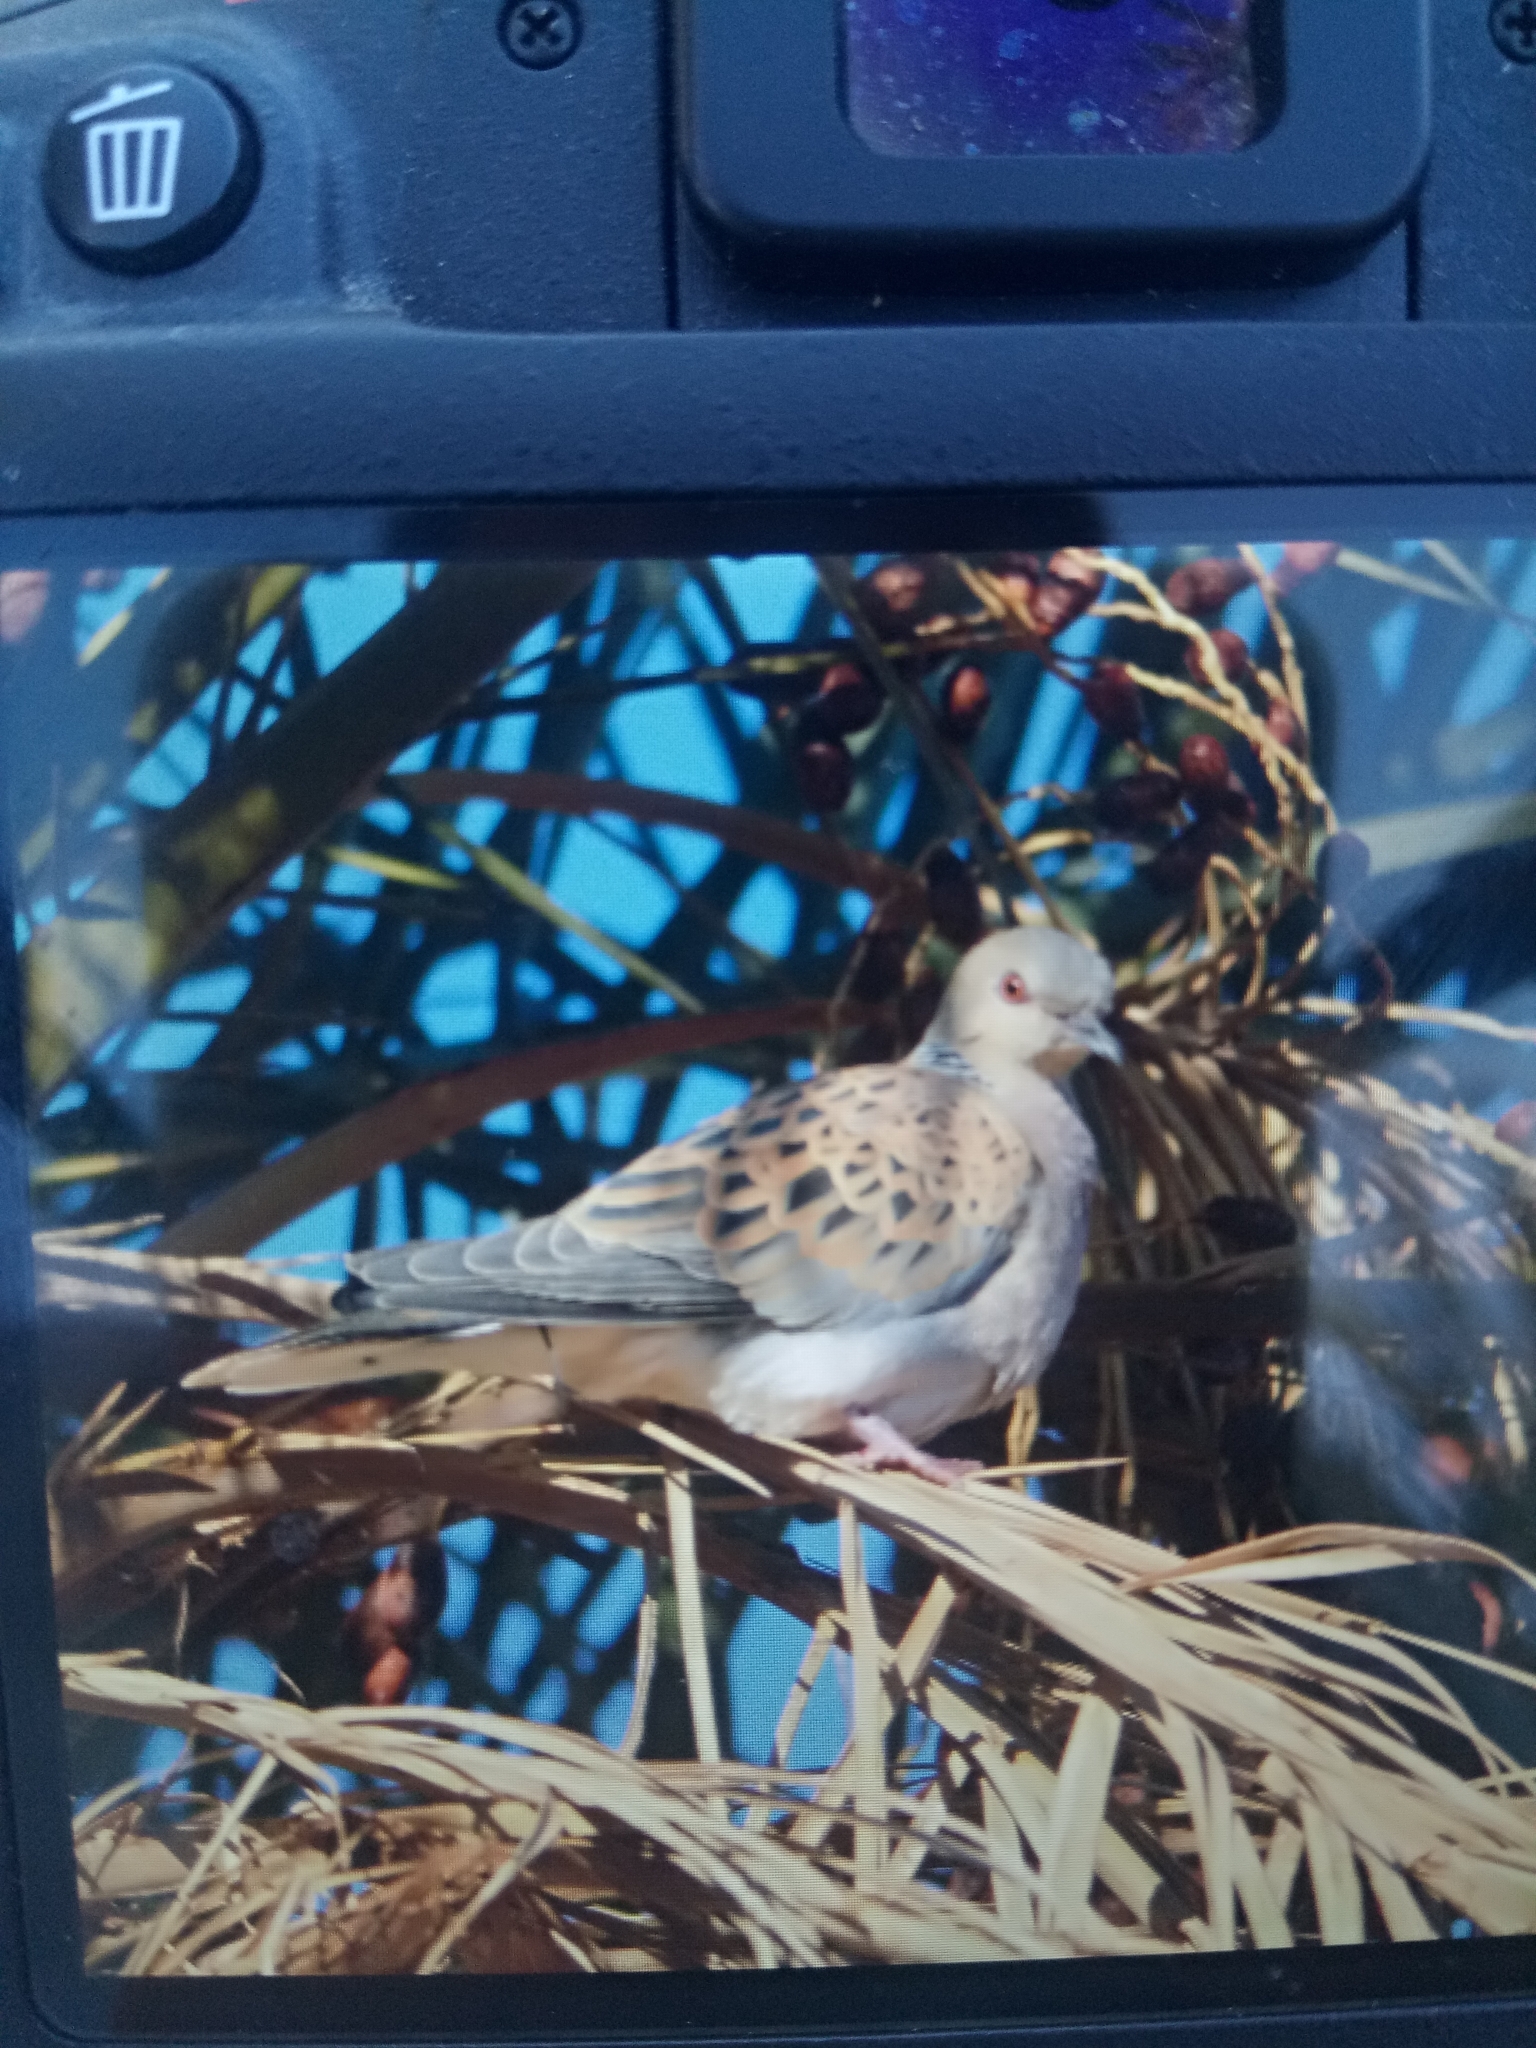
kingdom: Animalia
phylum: Chordata
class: Aves
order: Columbiformes
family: Columbidae
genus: Streptopelia
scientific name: Streptopelia turtur
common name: European turtle dove
